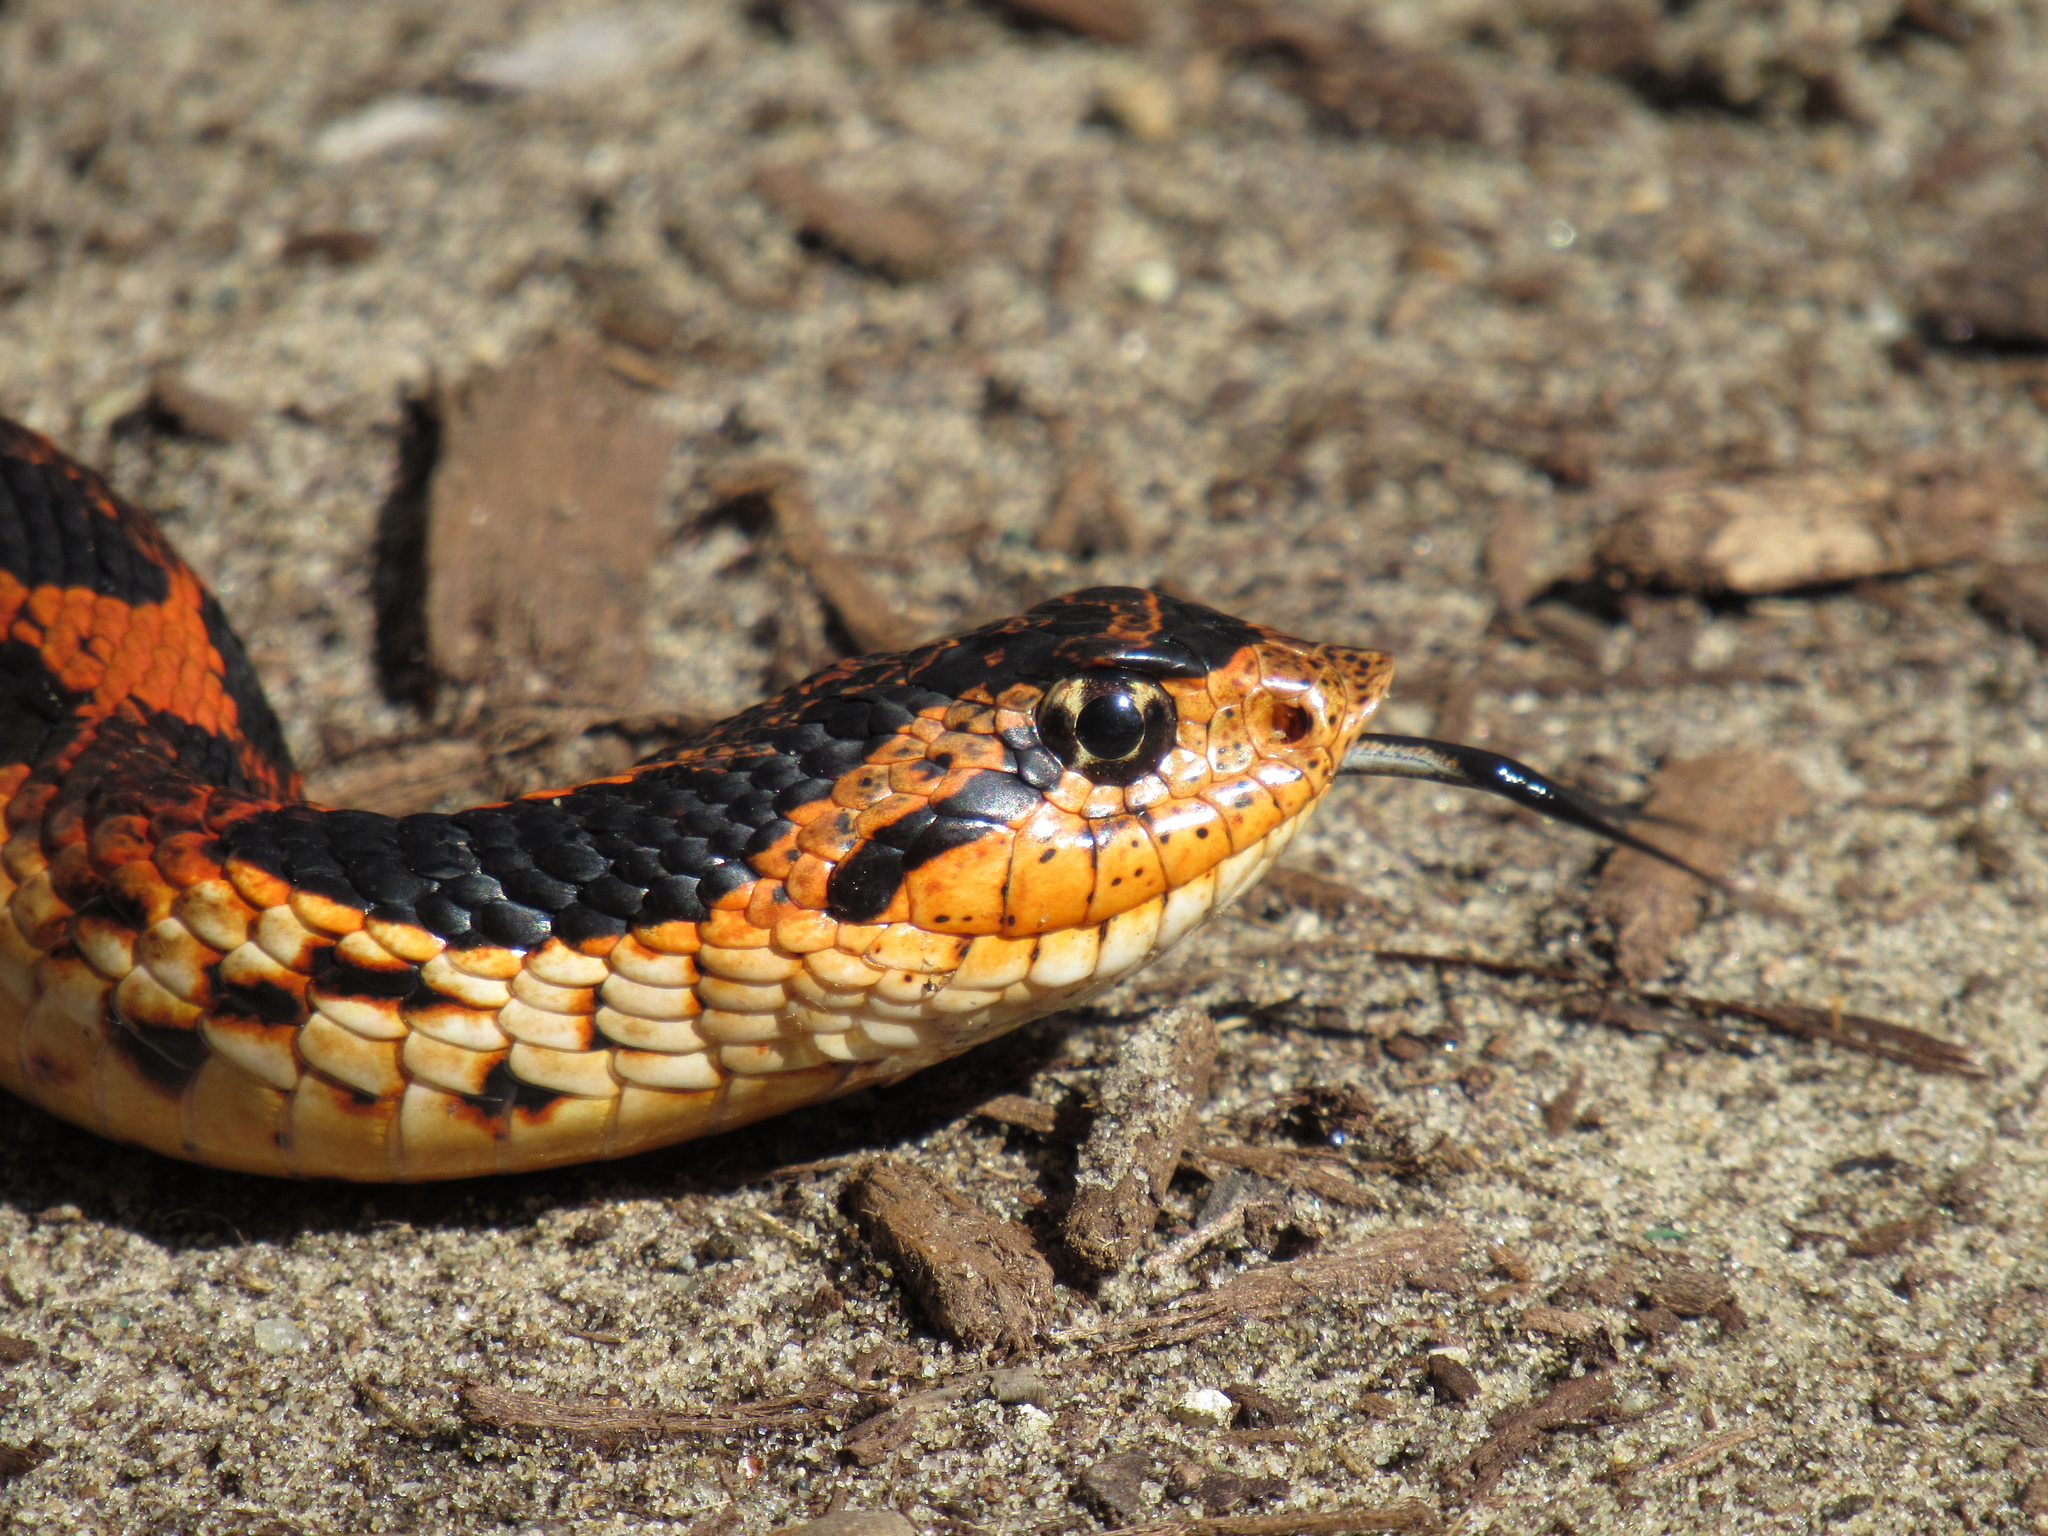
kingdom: Animalia
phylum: Chordata
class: Squamata
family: Colubridae
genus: Heterodon
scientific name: Heterodon platirhinos
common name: Eastern hognose snake
